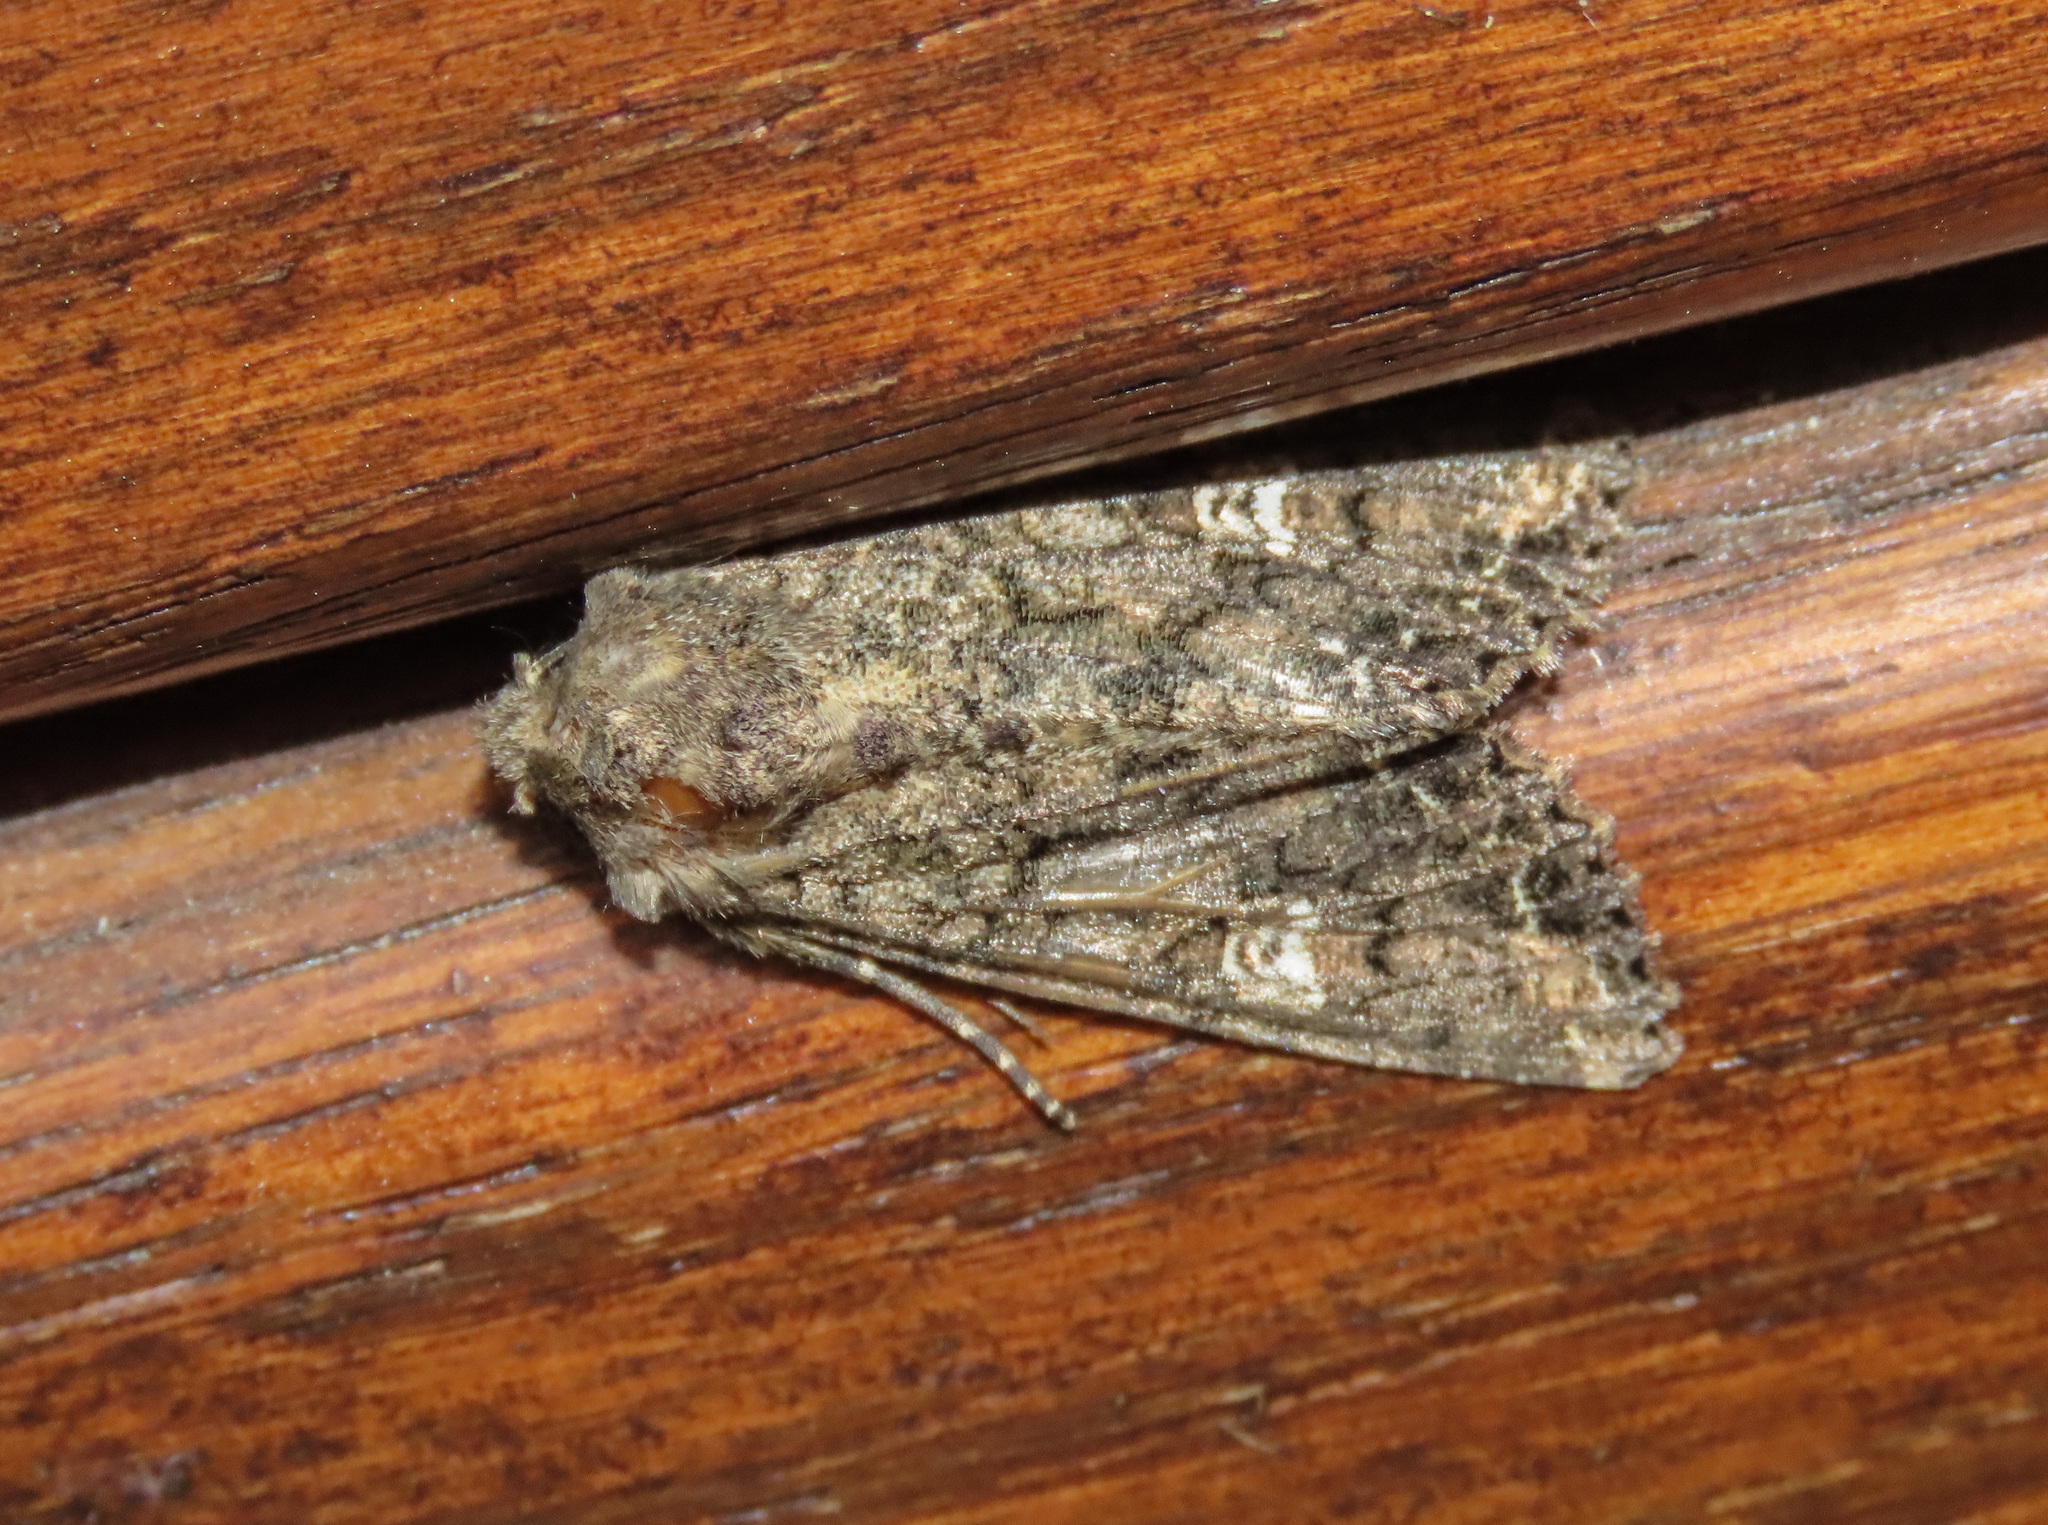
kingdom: Animalia
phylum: Arthropoda
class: Insecta
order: Lepidoptera
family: Noctuidae
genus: Mamestra
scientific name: Mamestra brassicae
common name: Cabbage moth
